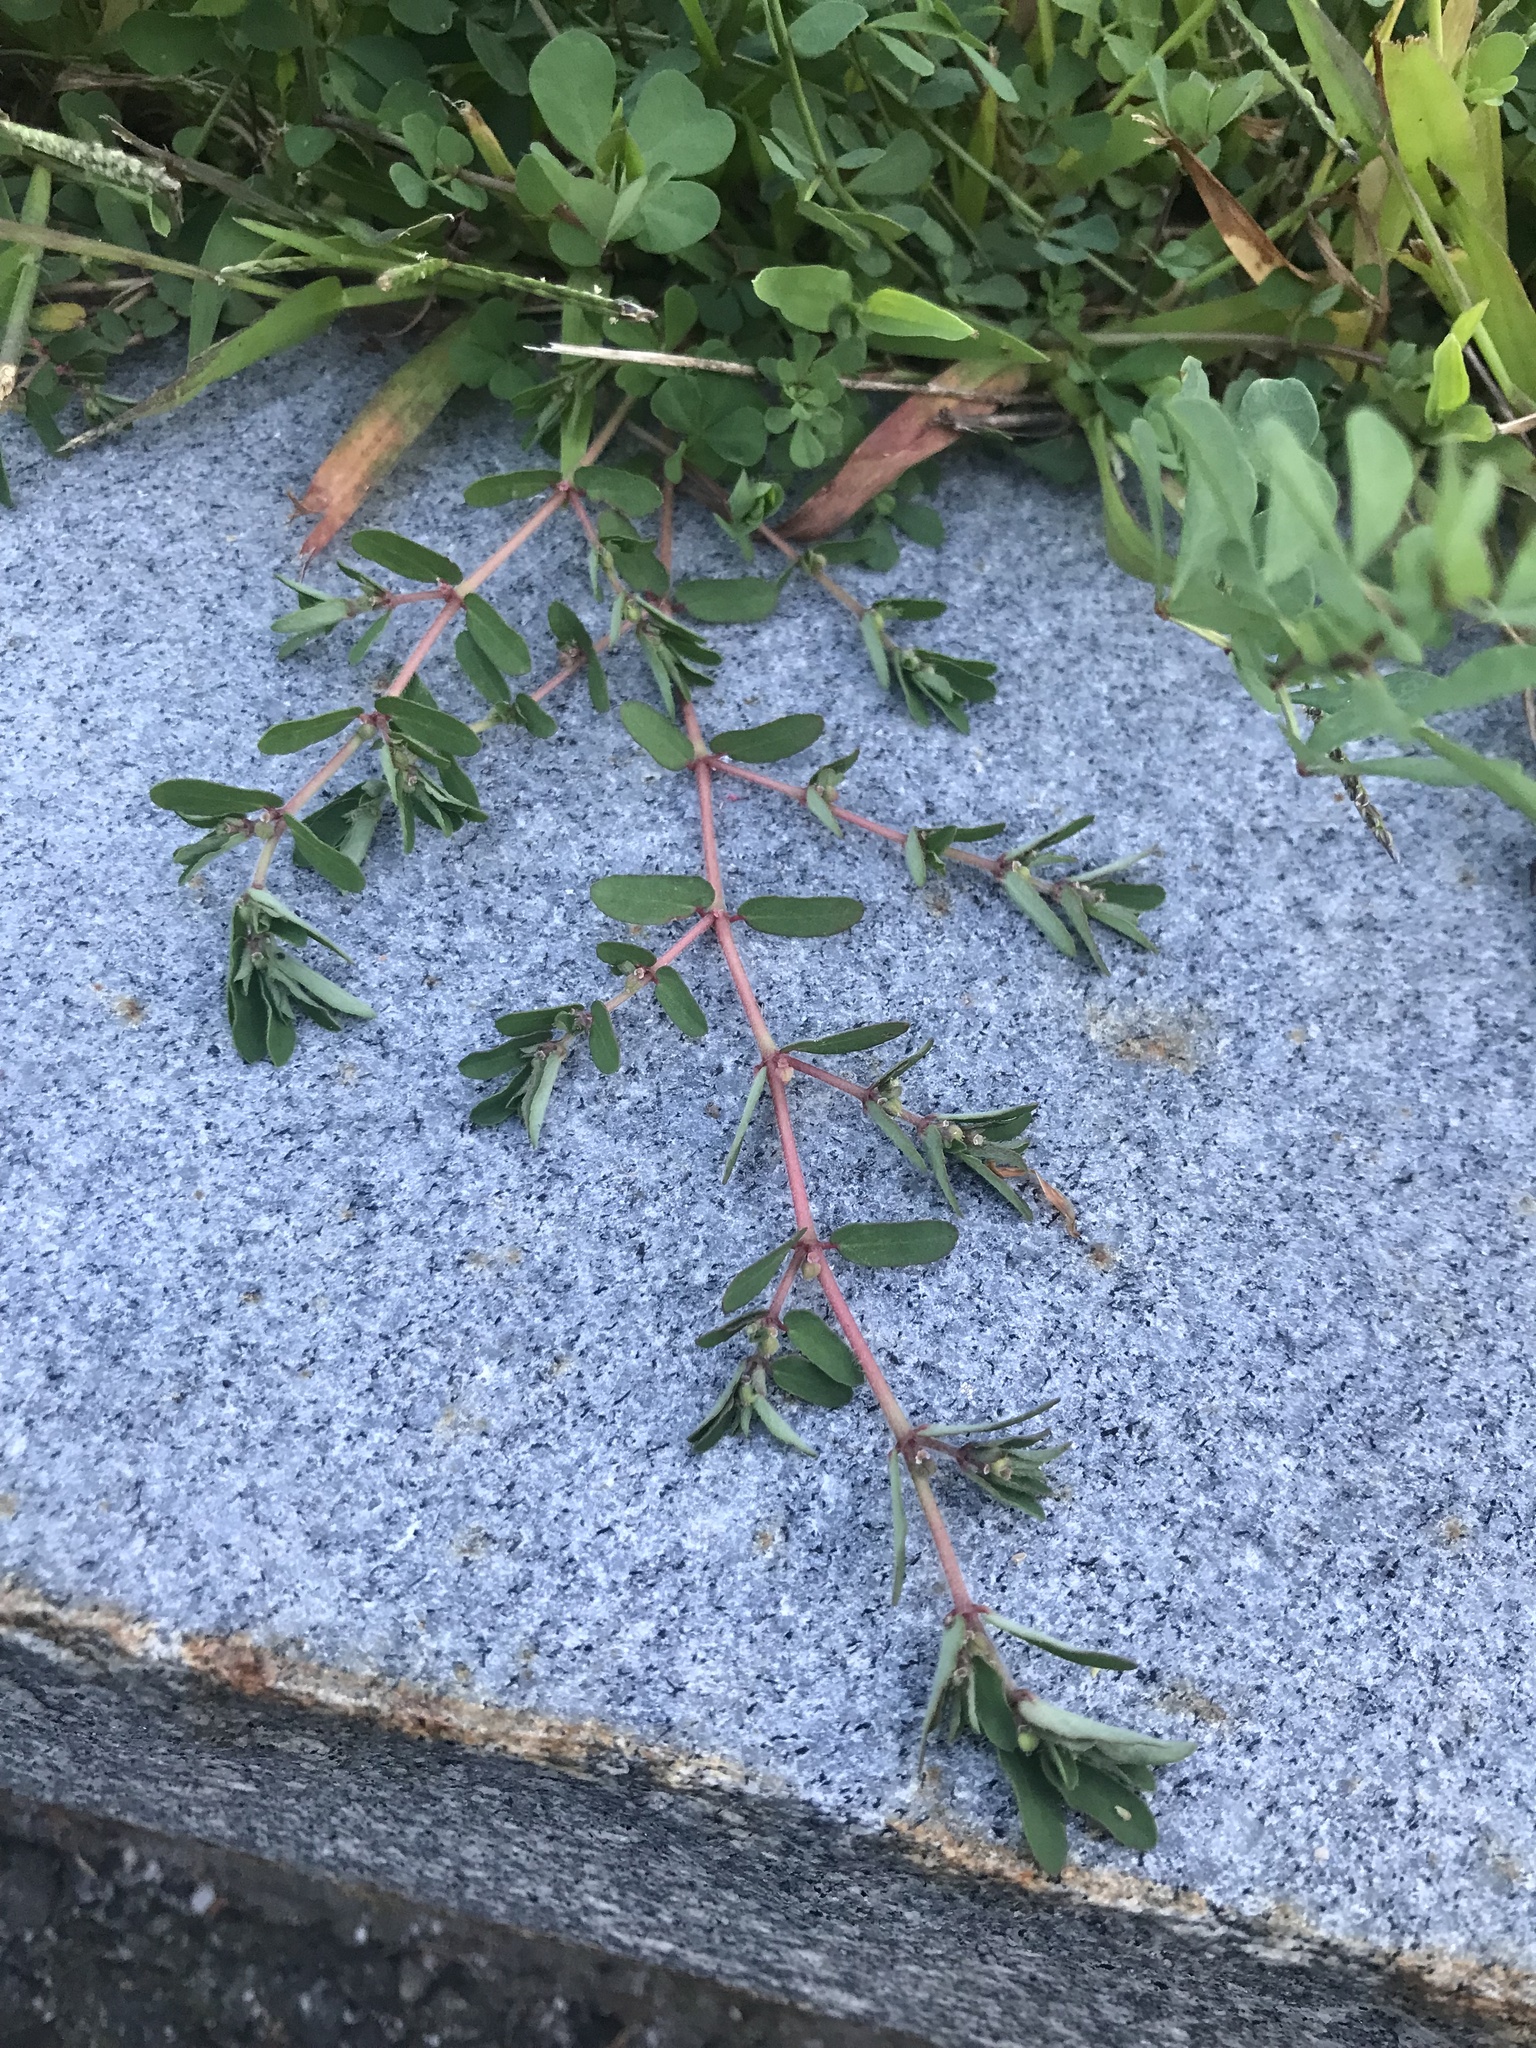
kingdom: Plantae
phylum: Tracheophyta
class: Magnoliopsida
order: Malpighiales
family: Euphorbiaceae
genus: Euphorbia
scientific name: Euphorbia maculata
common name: Spotted spurge
